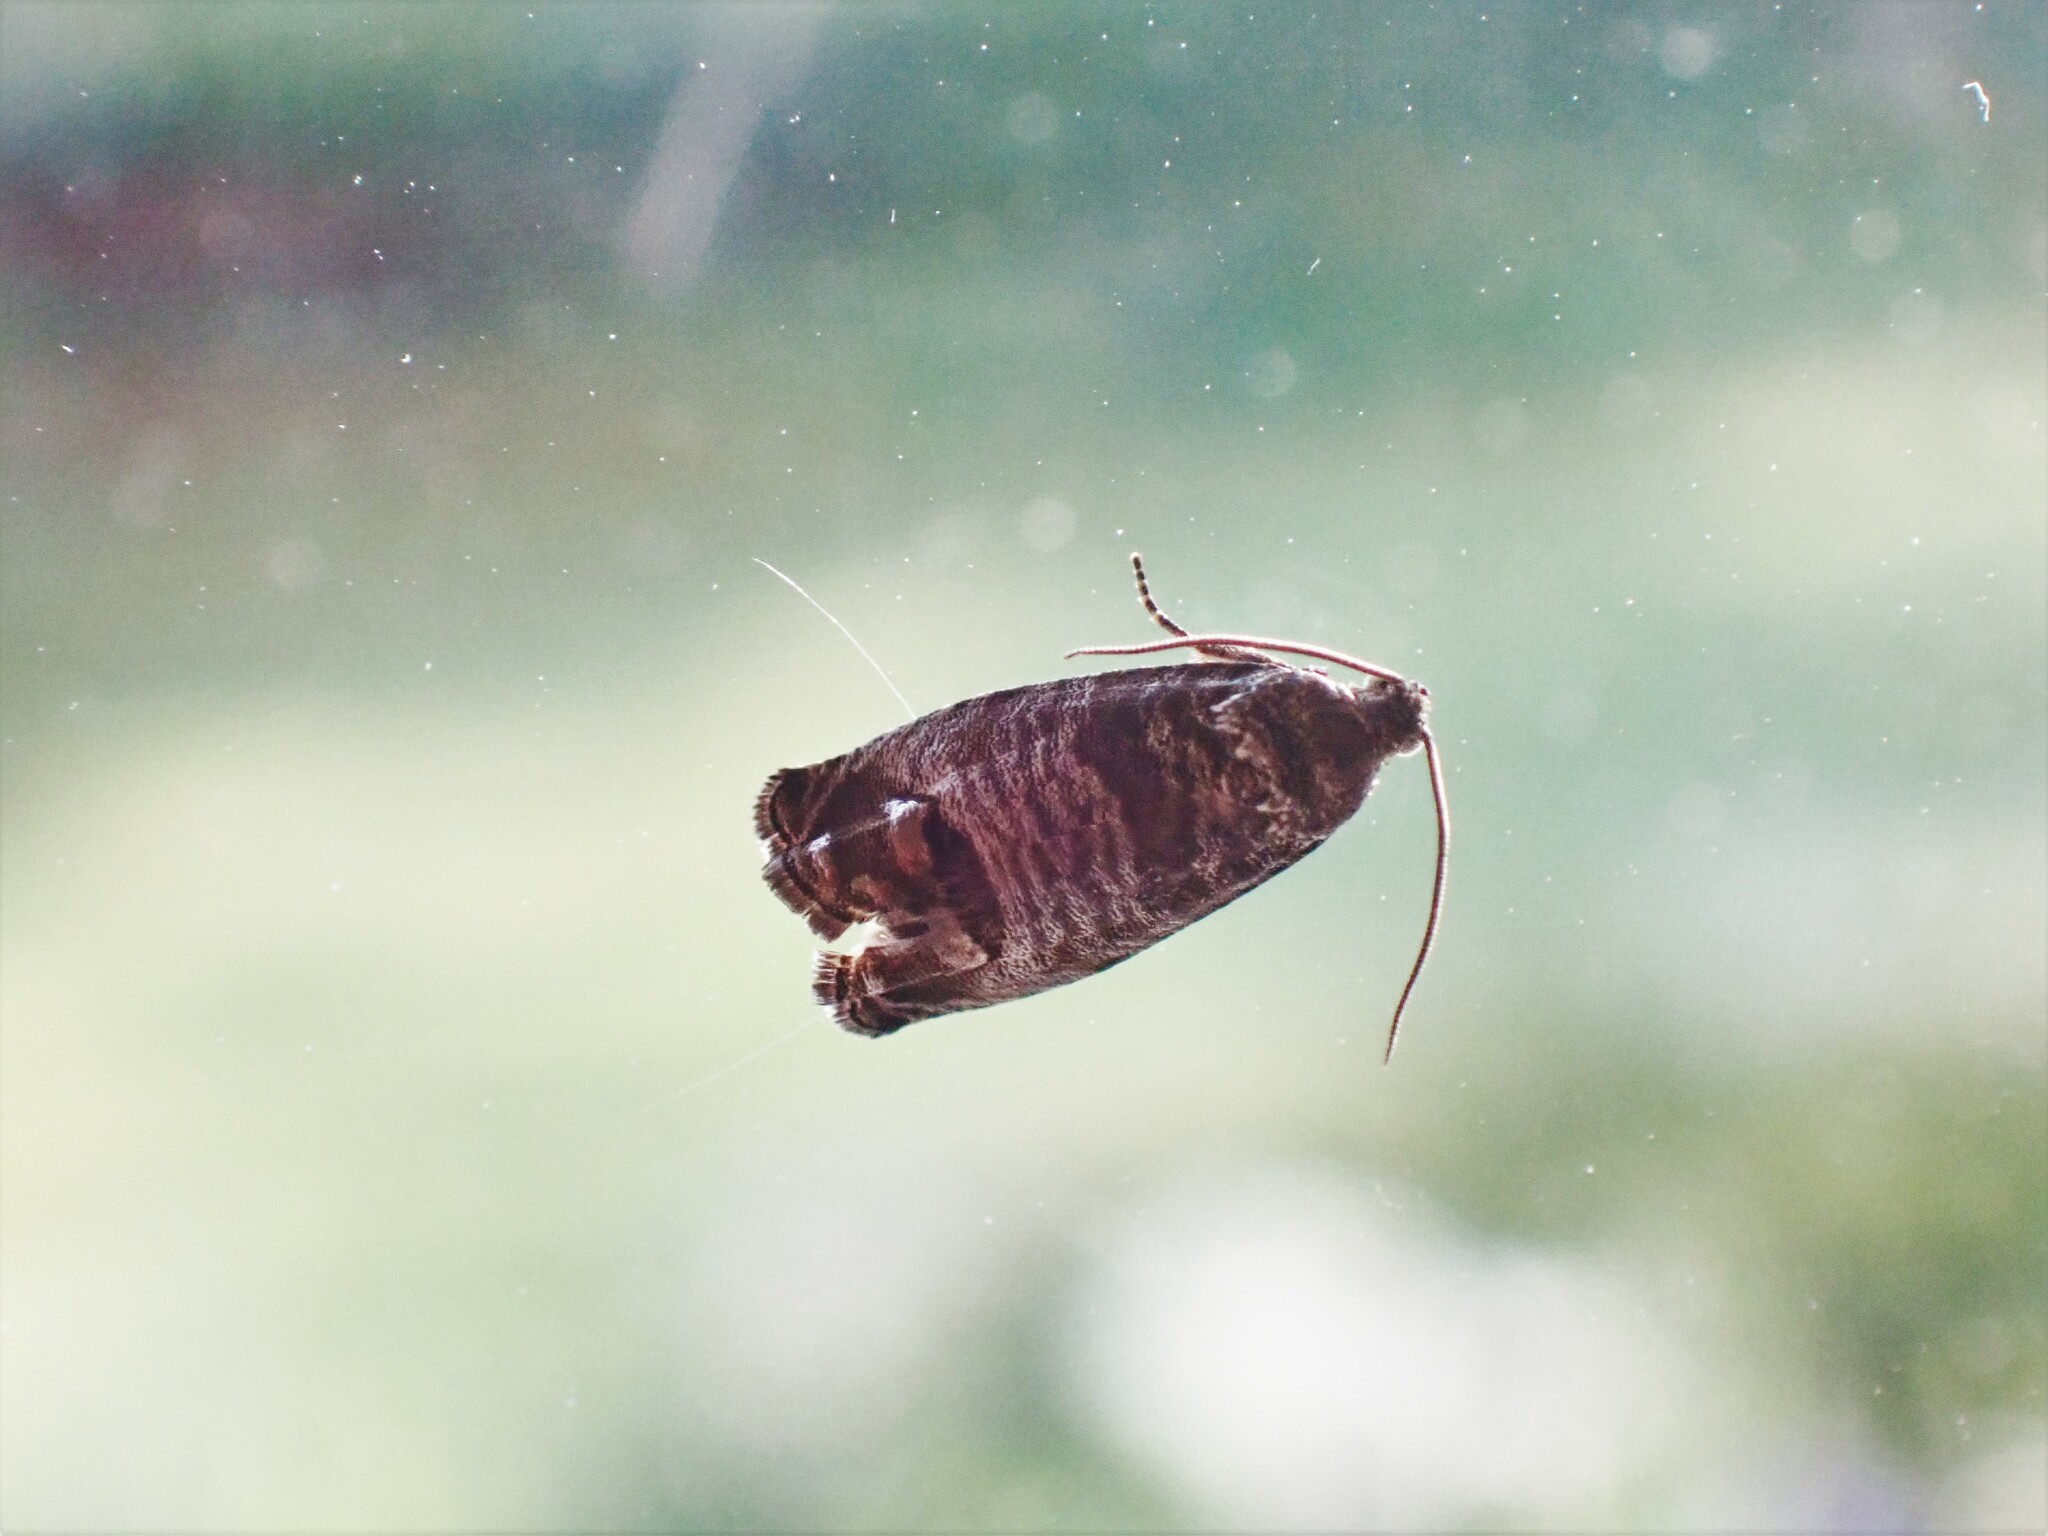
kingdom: Animalia
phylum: Arthropoda
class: Insecta
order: Lepidoptera
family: Tortricidae
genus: Cydia
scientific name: Cydia pomonella
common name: Codling moth
